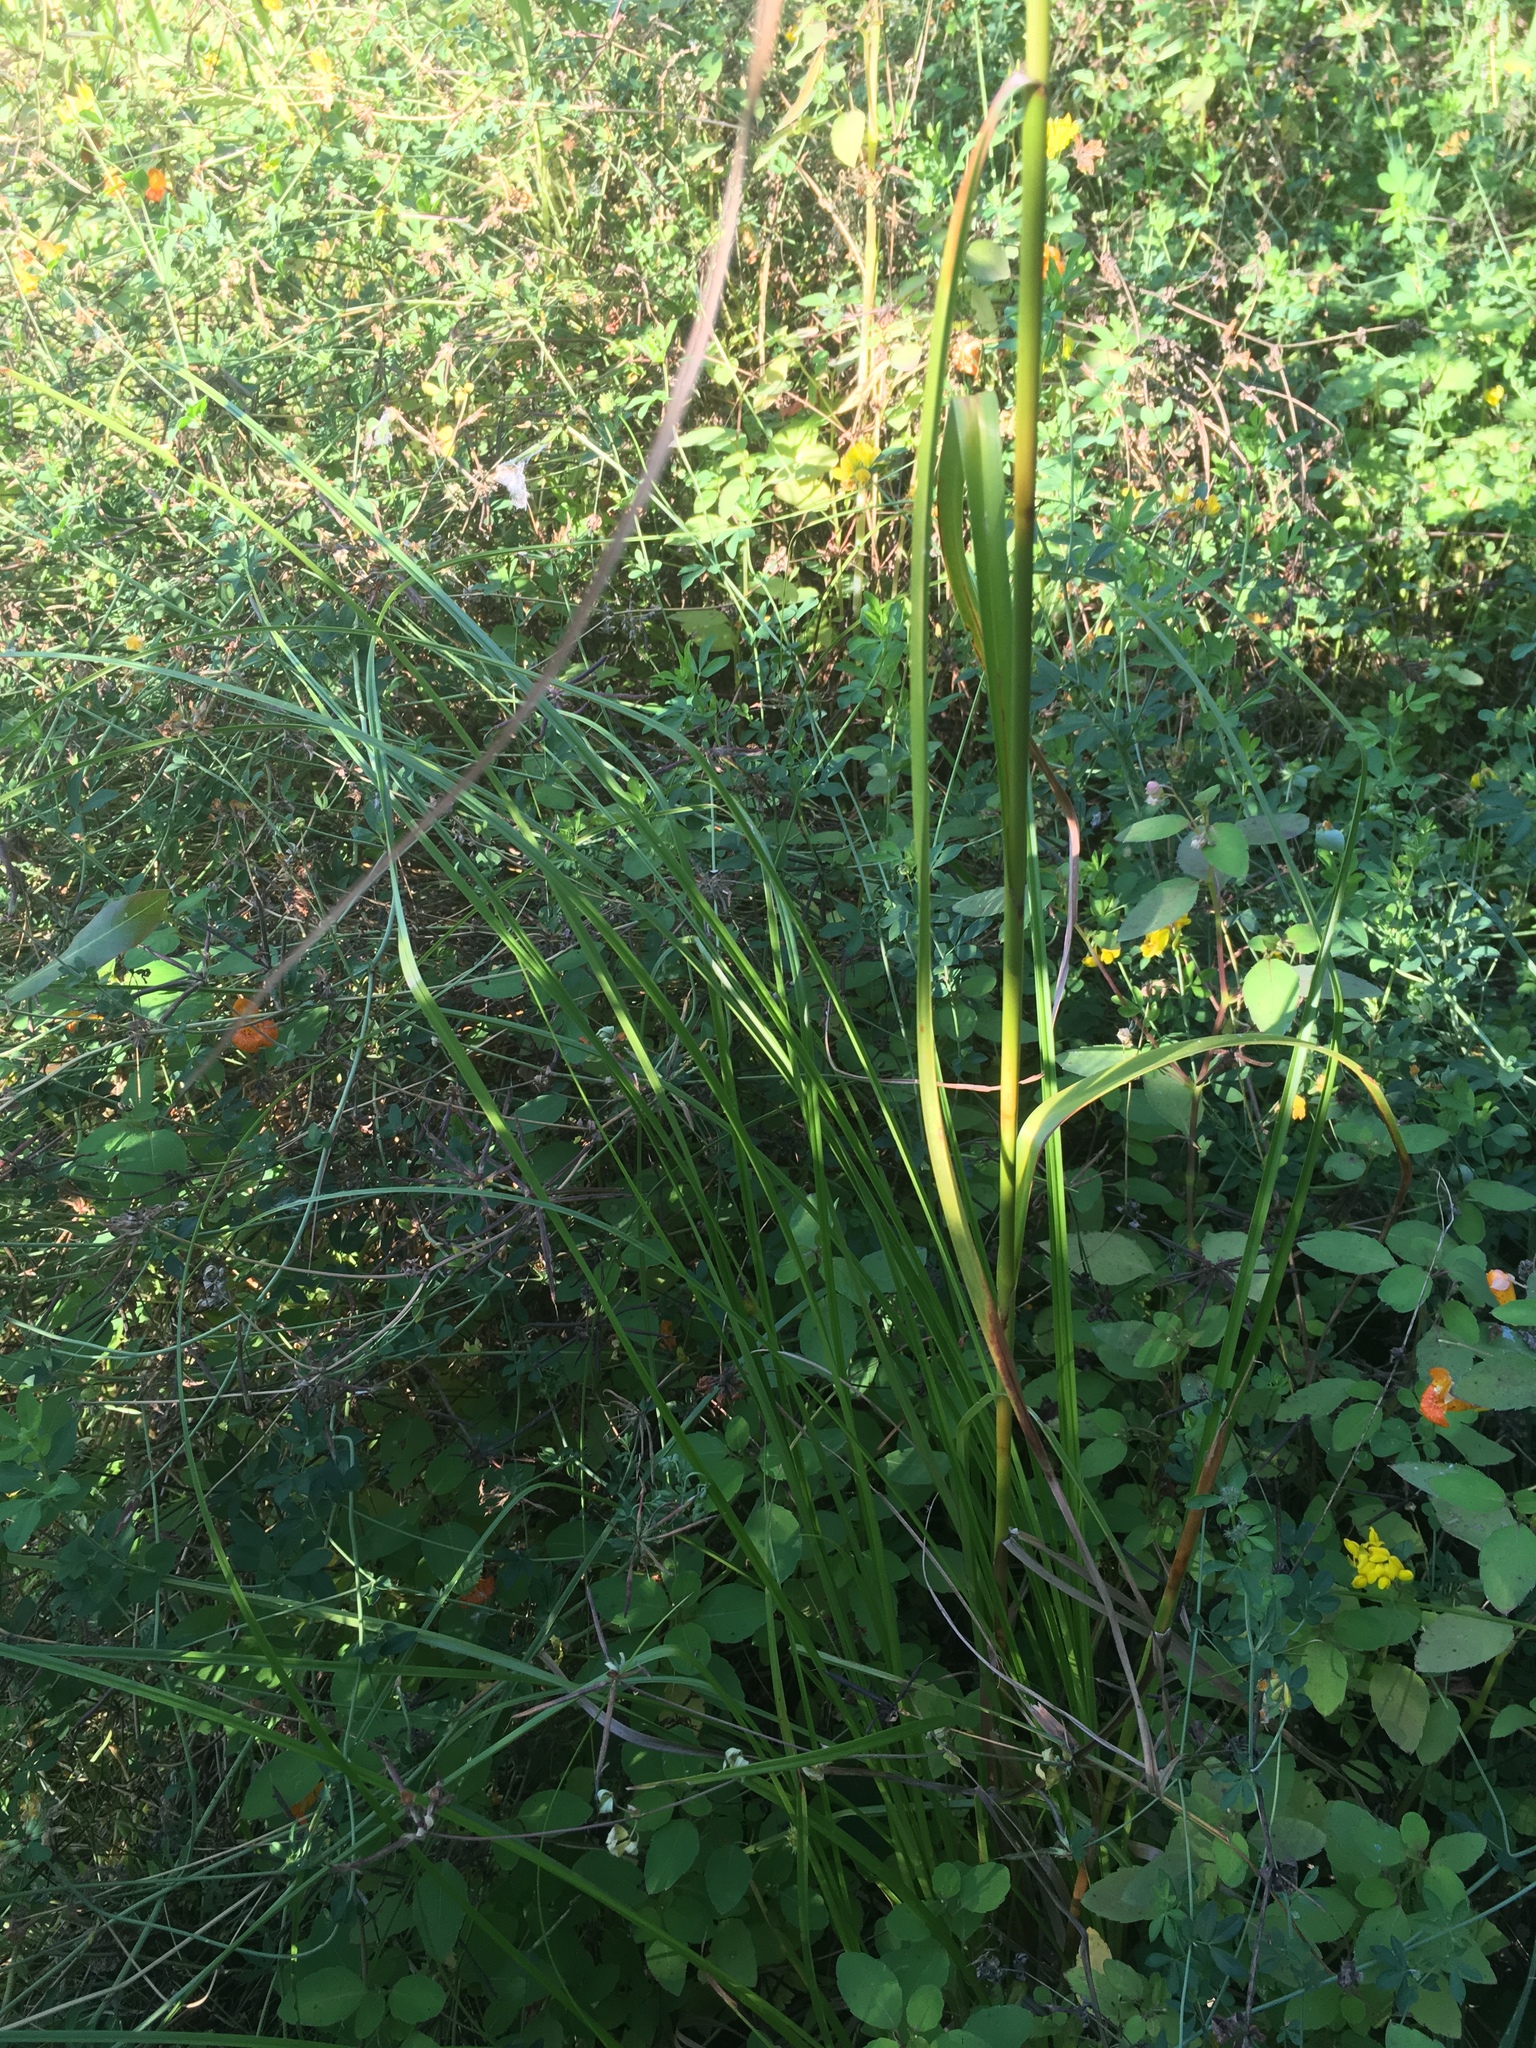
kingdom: Plantae
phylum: Tracheophyta
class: Liliopsida
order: Poales
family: Cyperaceae
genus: Scirpus
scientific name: Scirpus cyperinus
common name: Black-sheathed bulrush
